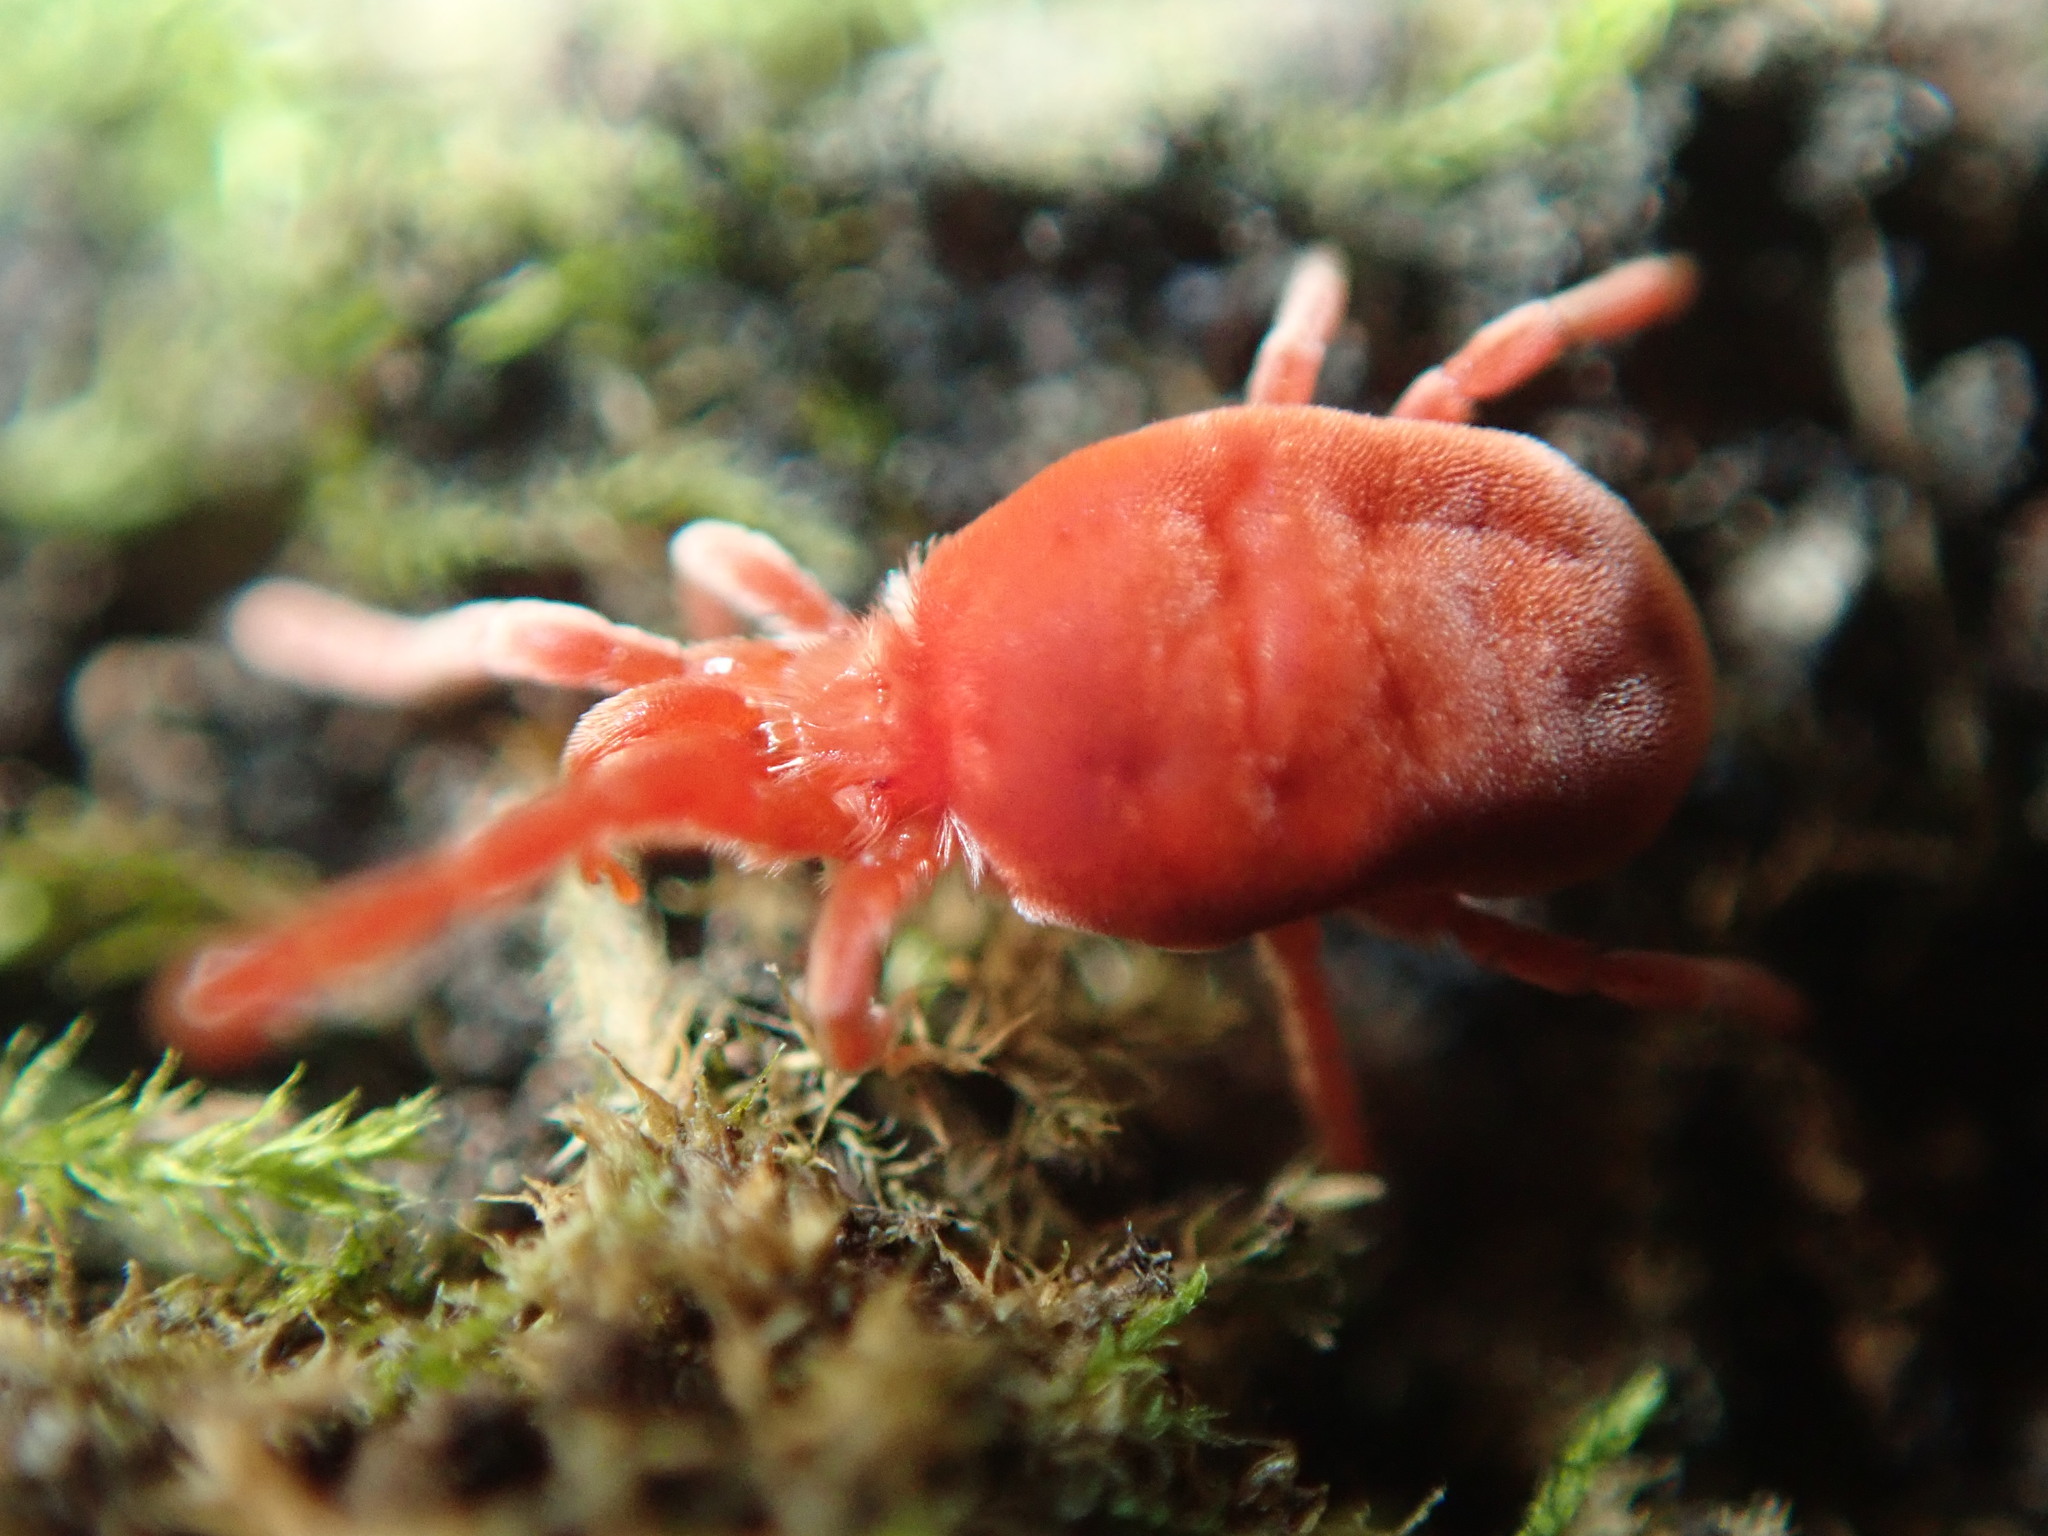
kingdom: Animalia
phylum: Arthropoda
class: Arachnida
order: Trombidiformes
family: Trombidiidae
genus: Allothrombium
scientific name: Allothrombium
